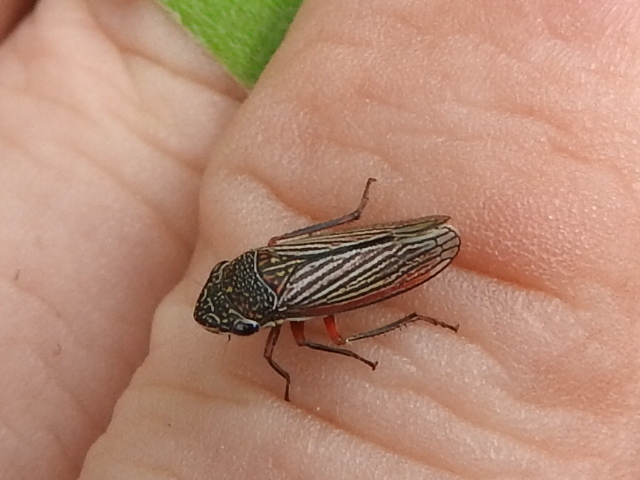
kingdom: Animalia
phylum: Arthropoda
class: Insecta
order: Hemiptera
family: Cicadellidae
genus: Cuerna
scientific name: Cuerna costalis
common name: Lateral-lined sharpshooter
